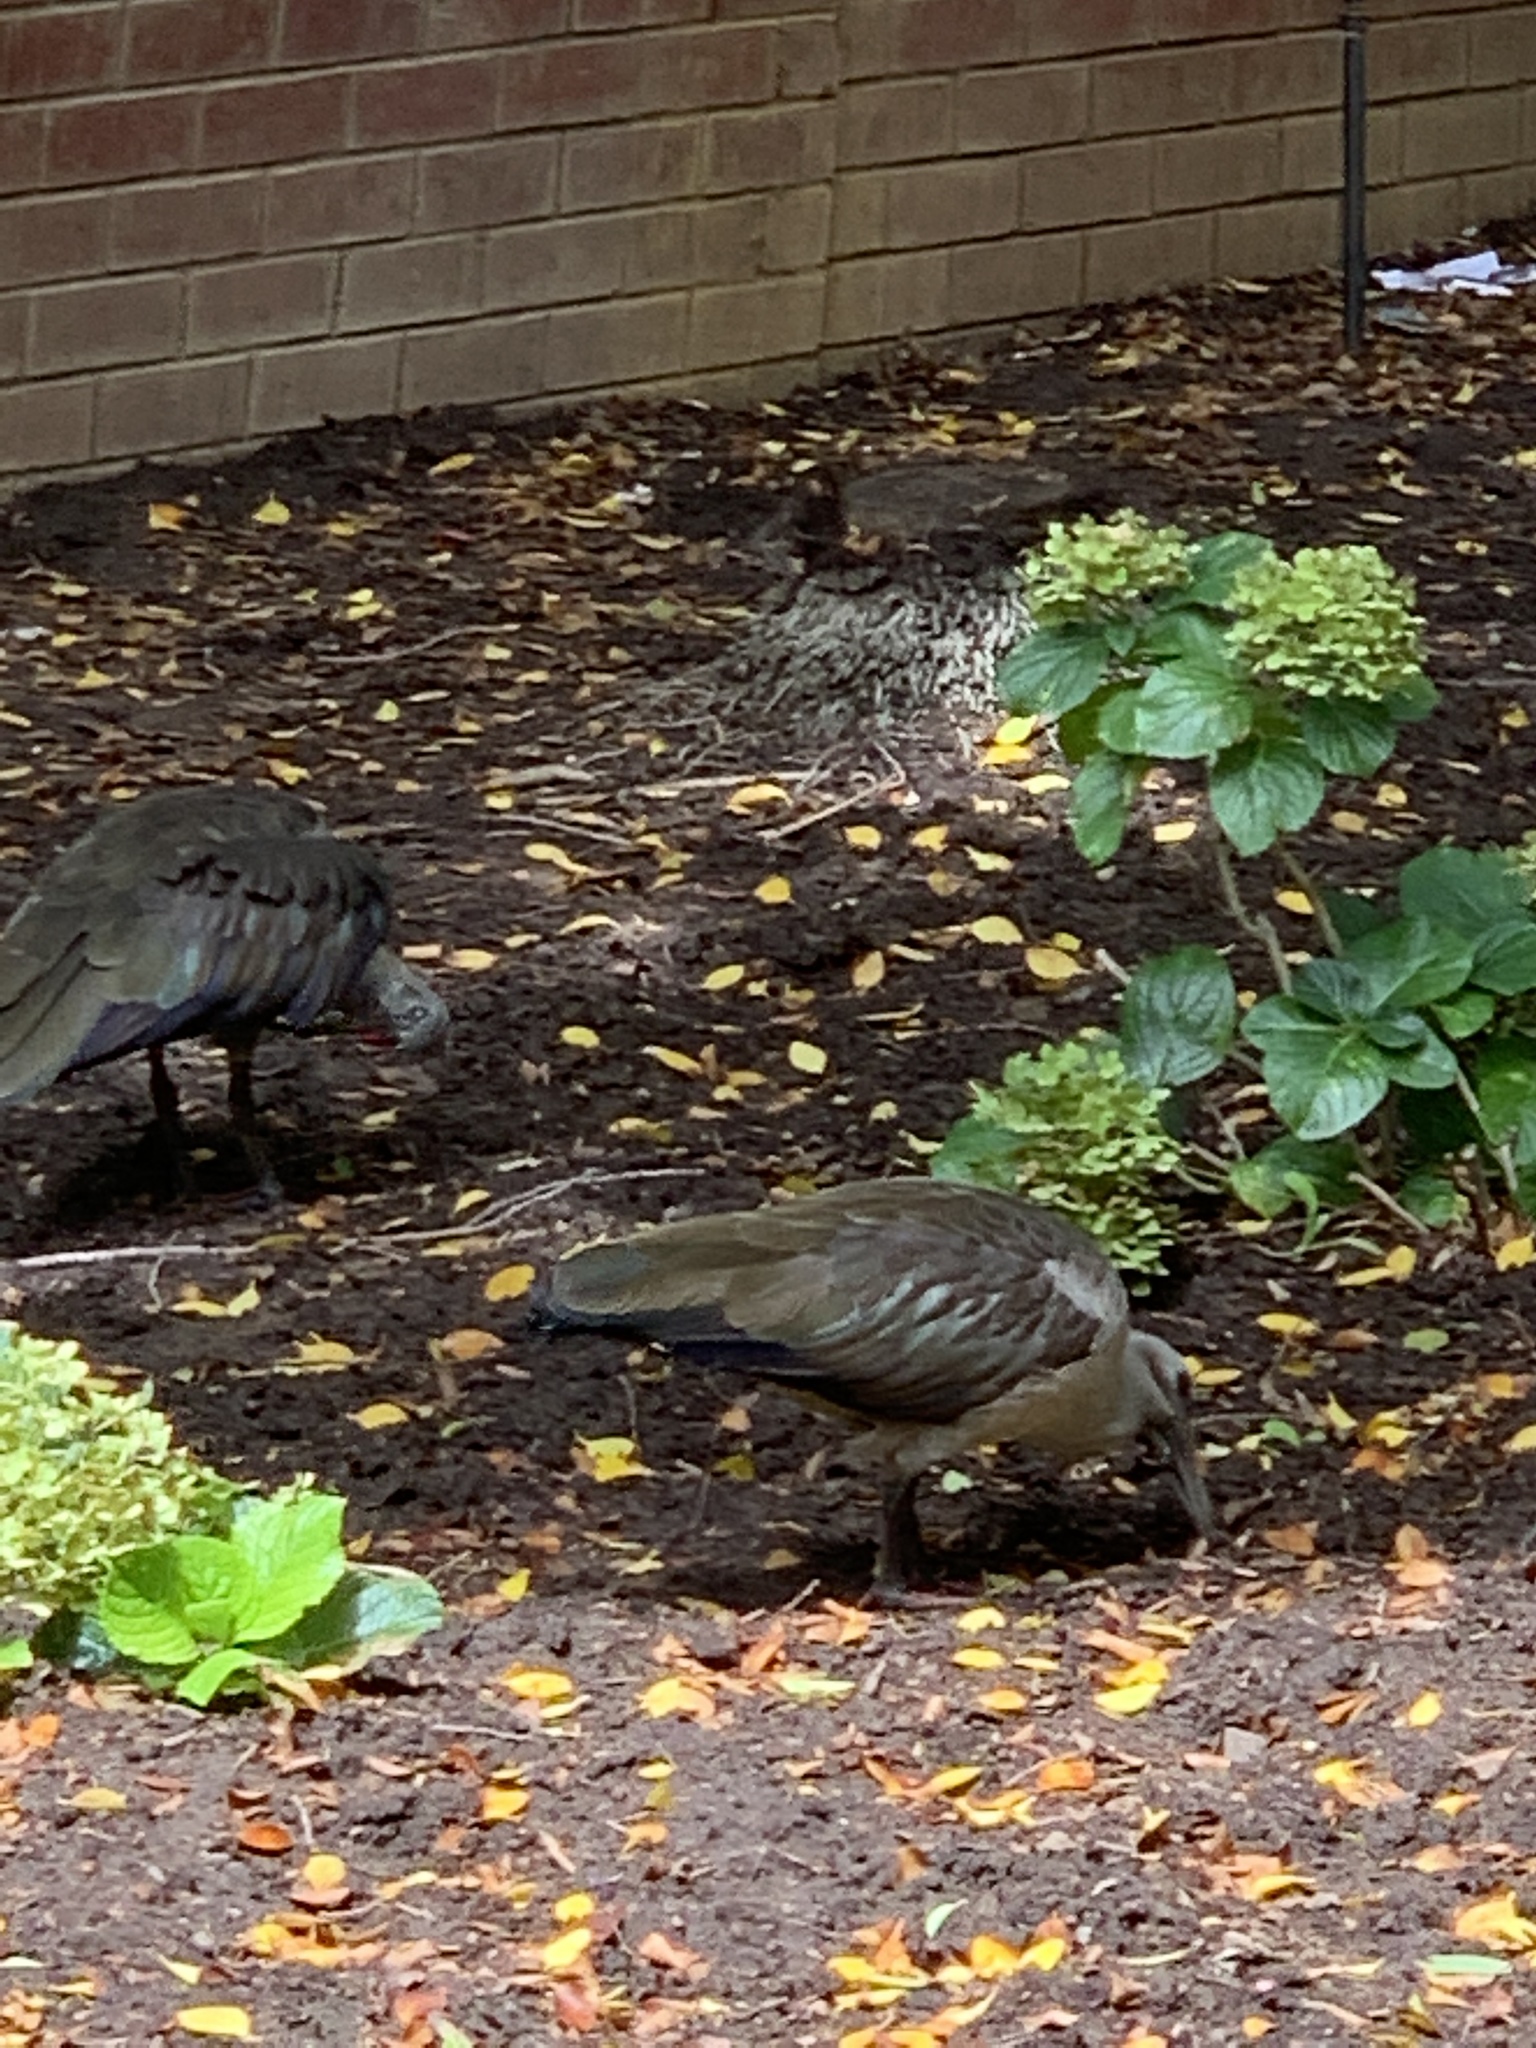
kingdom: Animalia
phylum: Chordata
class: Aves
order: Pelecaniformes
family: Threskiornithidae
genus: Bostrychia
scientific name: Bostrychia hagedash
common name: Hadada ibis
